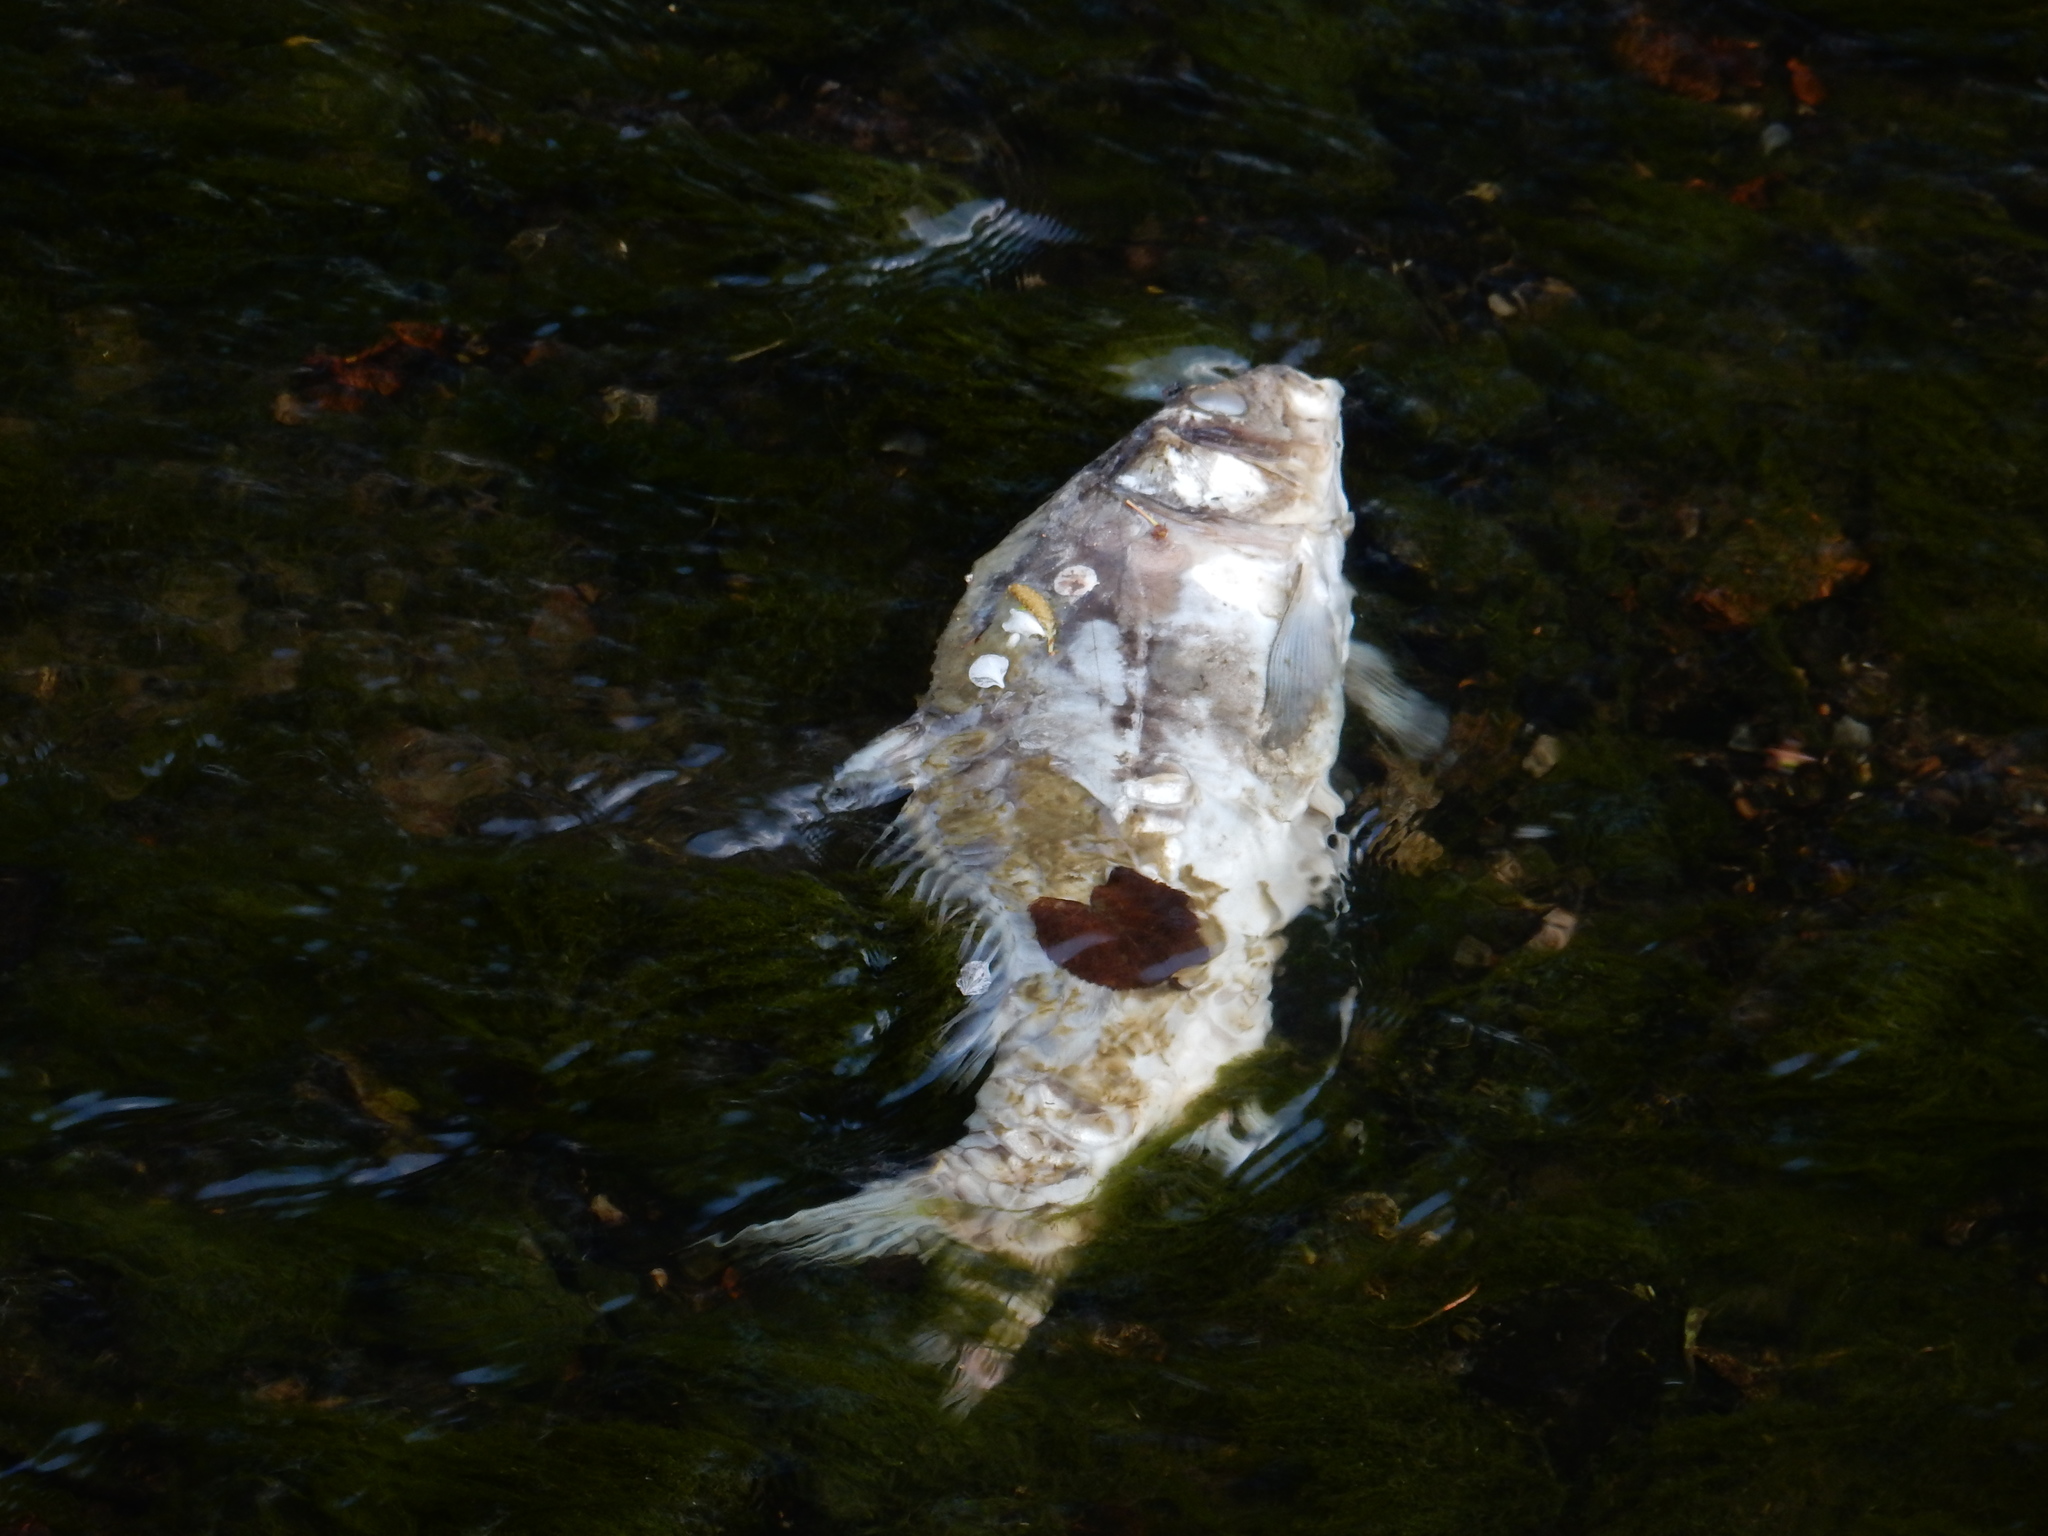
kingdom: Animalia
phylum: Chordata
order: Cypriniformes
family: Cyprinidae
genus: Cyprinus
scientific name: Cyprinus carpio
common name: Common carp
